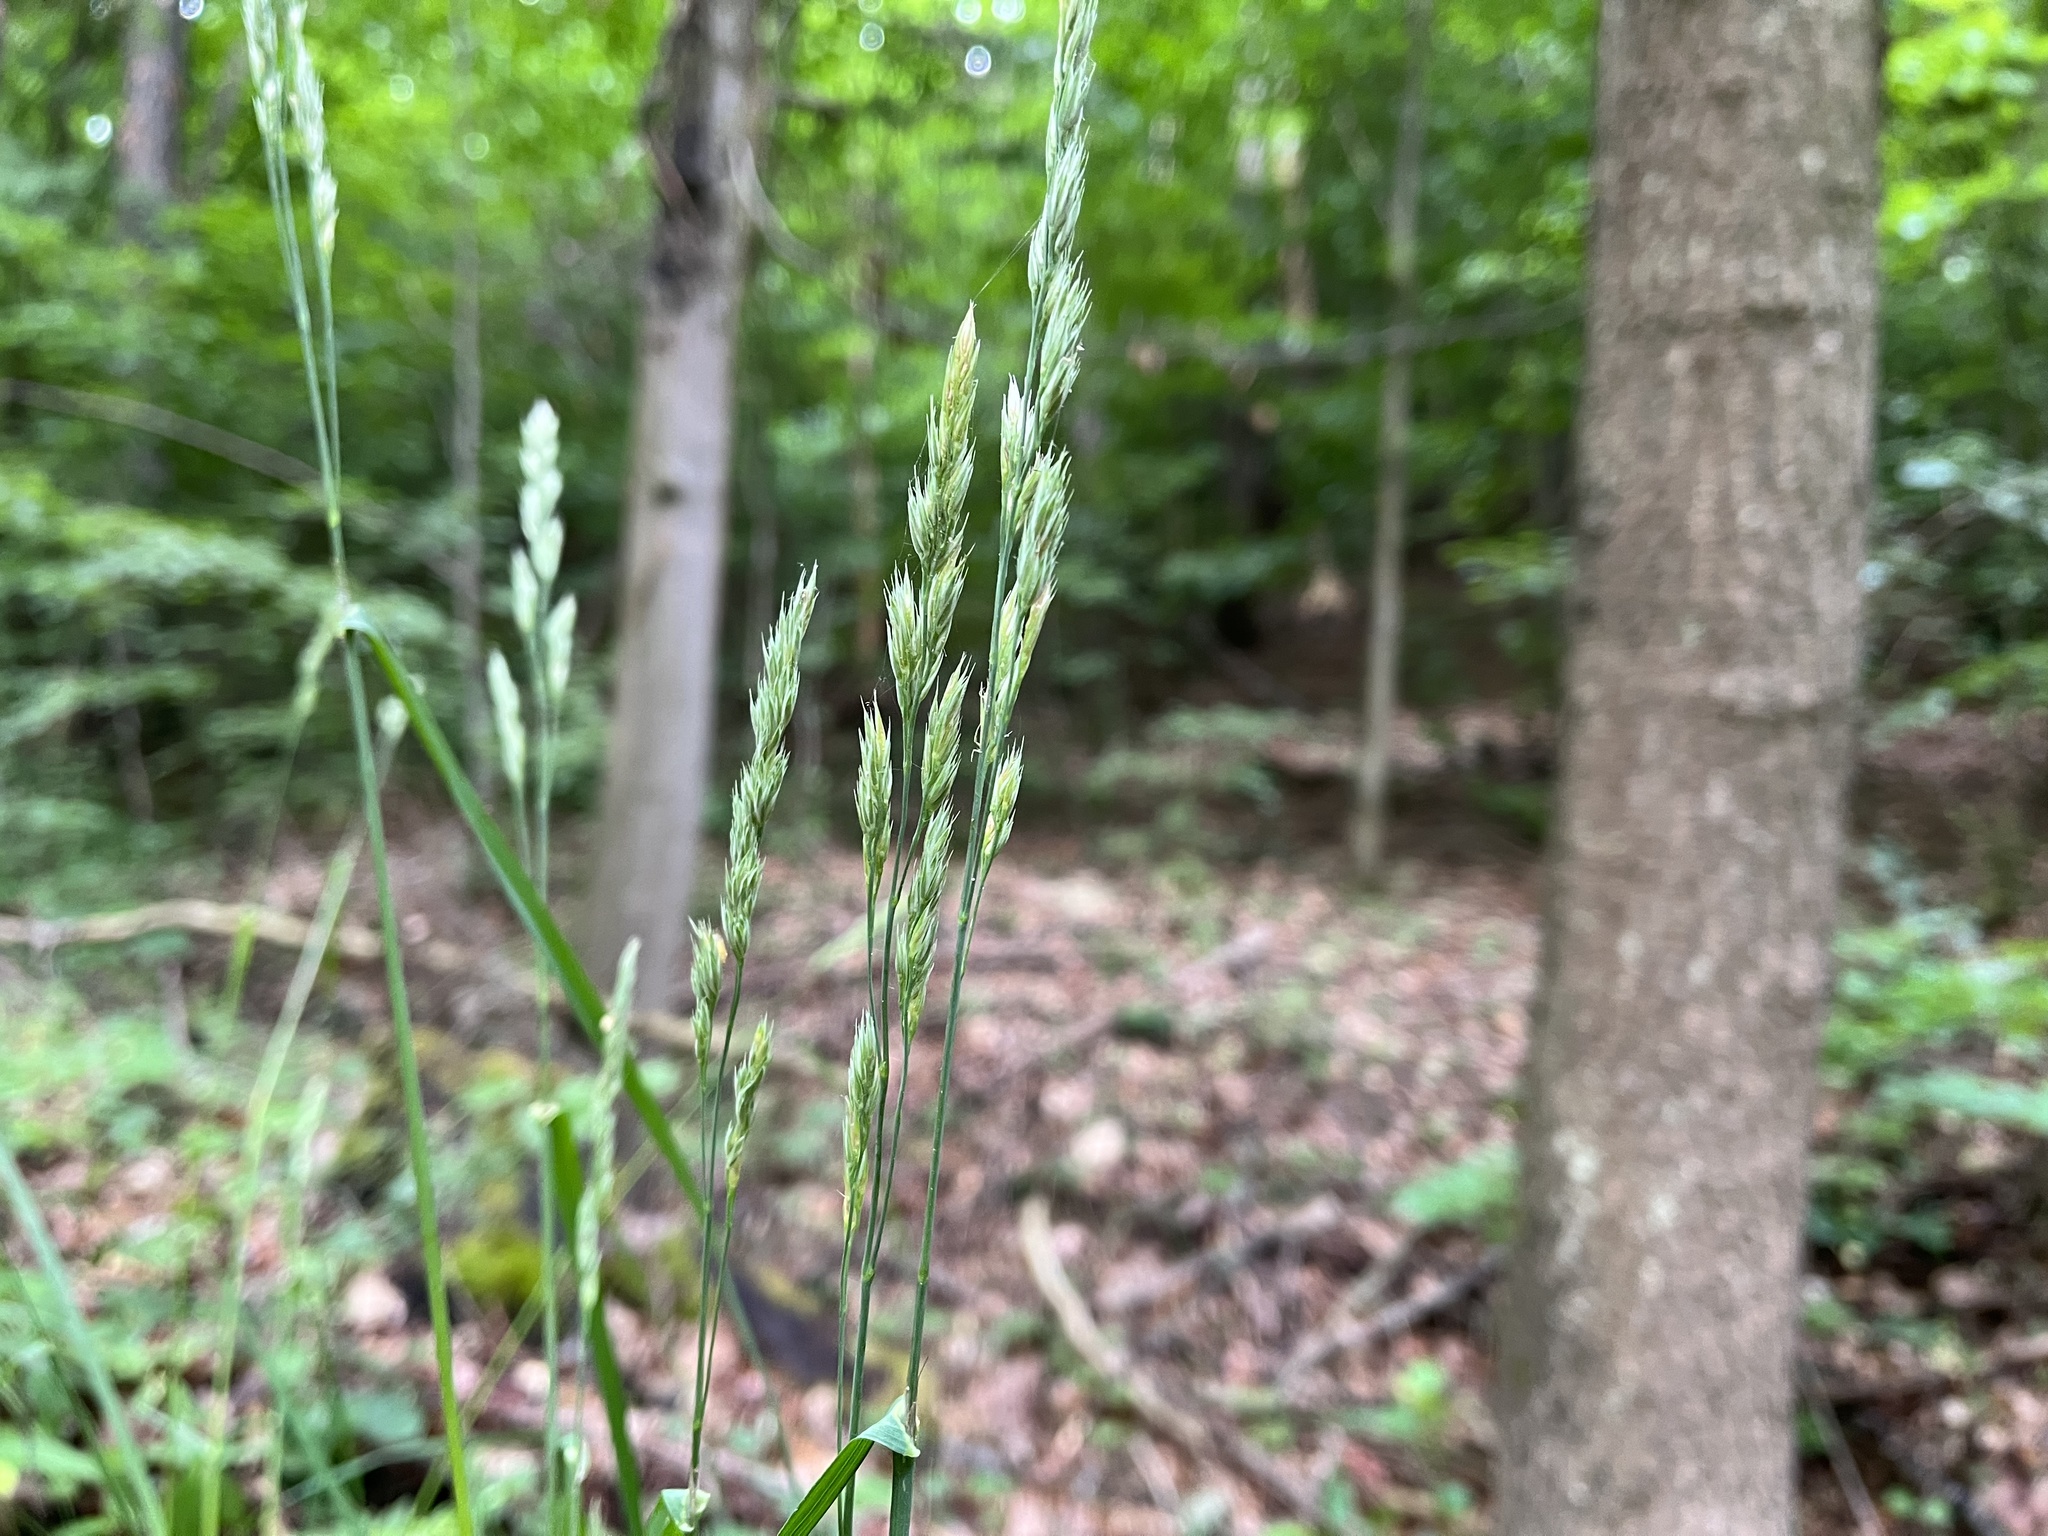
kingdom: Plantae
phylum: Tracheophyta
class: Liliopsida
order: Poales
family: Poaceae
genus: Dactylis
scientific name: Dactylis glomerata
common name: Orchardgrass
